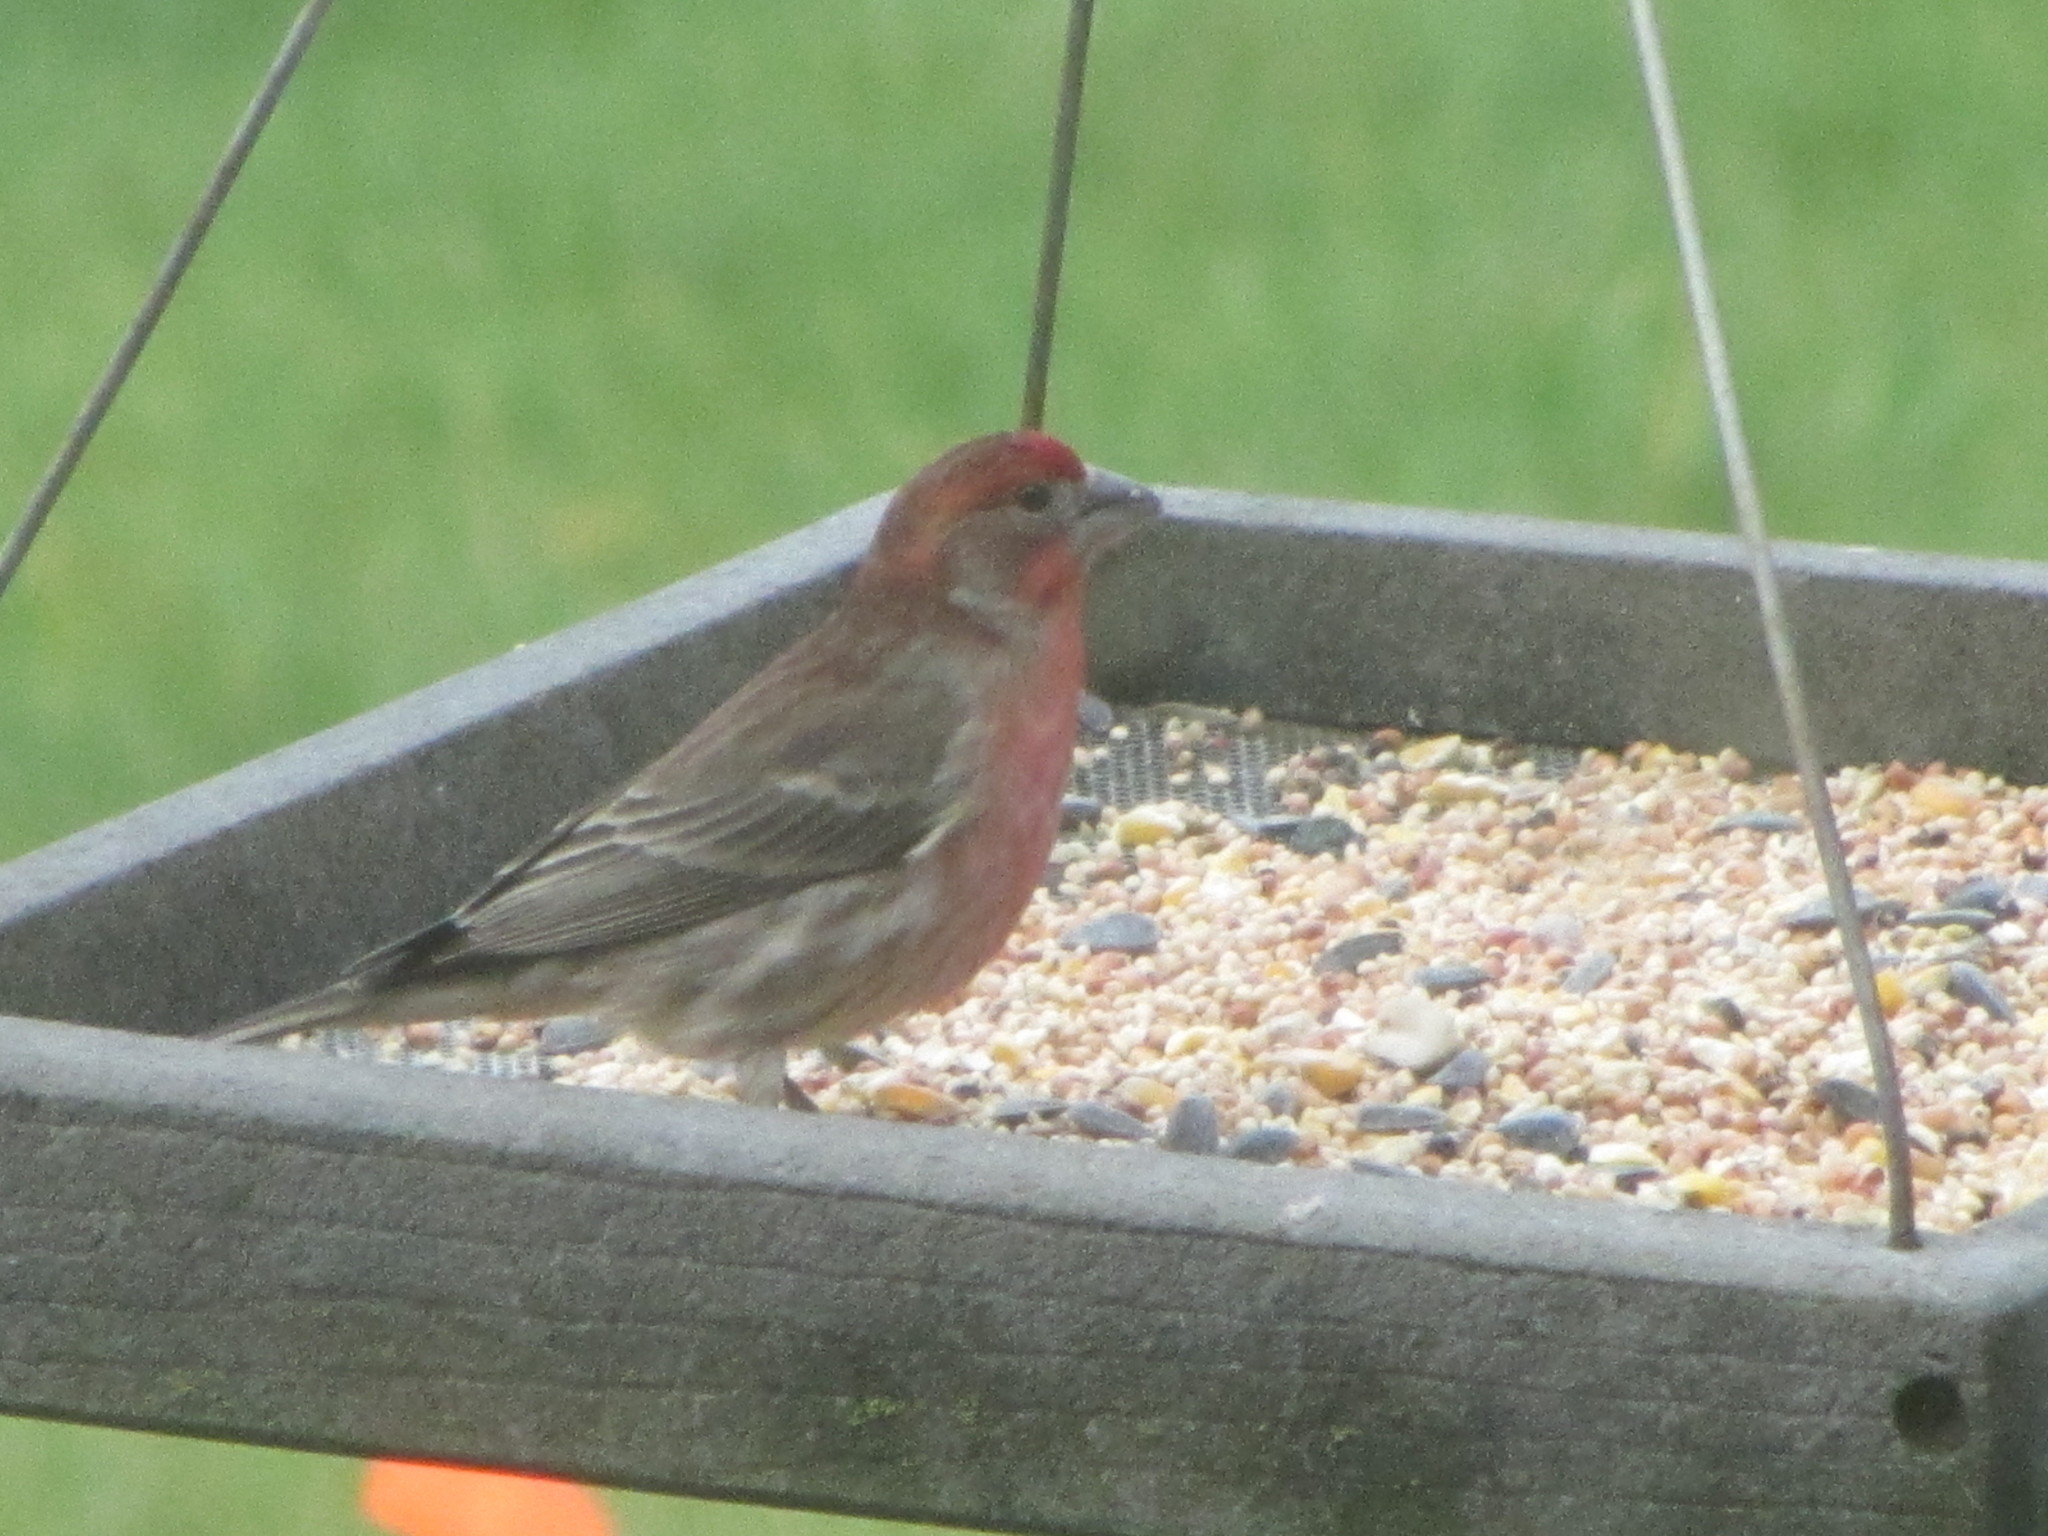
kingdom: Animalia
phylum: Chordata
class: Aves
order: Passeriformes
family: Fringillidae
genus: Haemorhous
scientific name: Haemorhous mexicanus
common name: House finch
